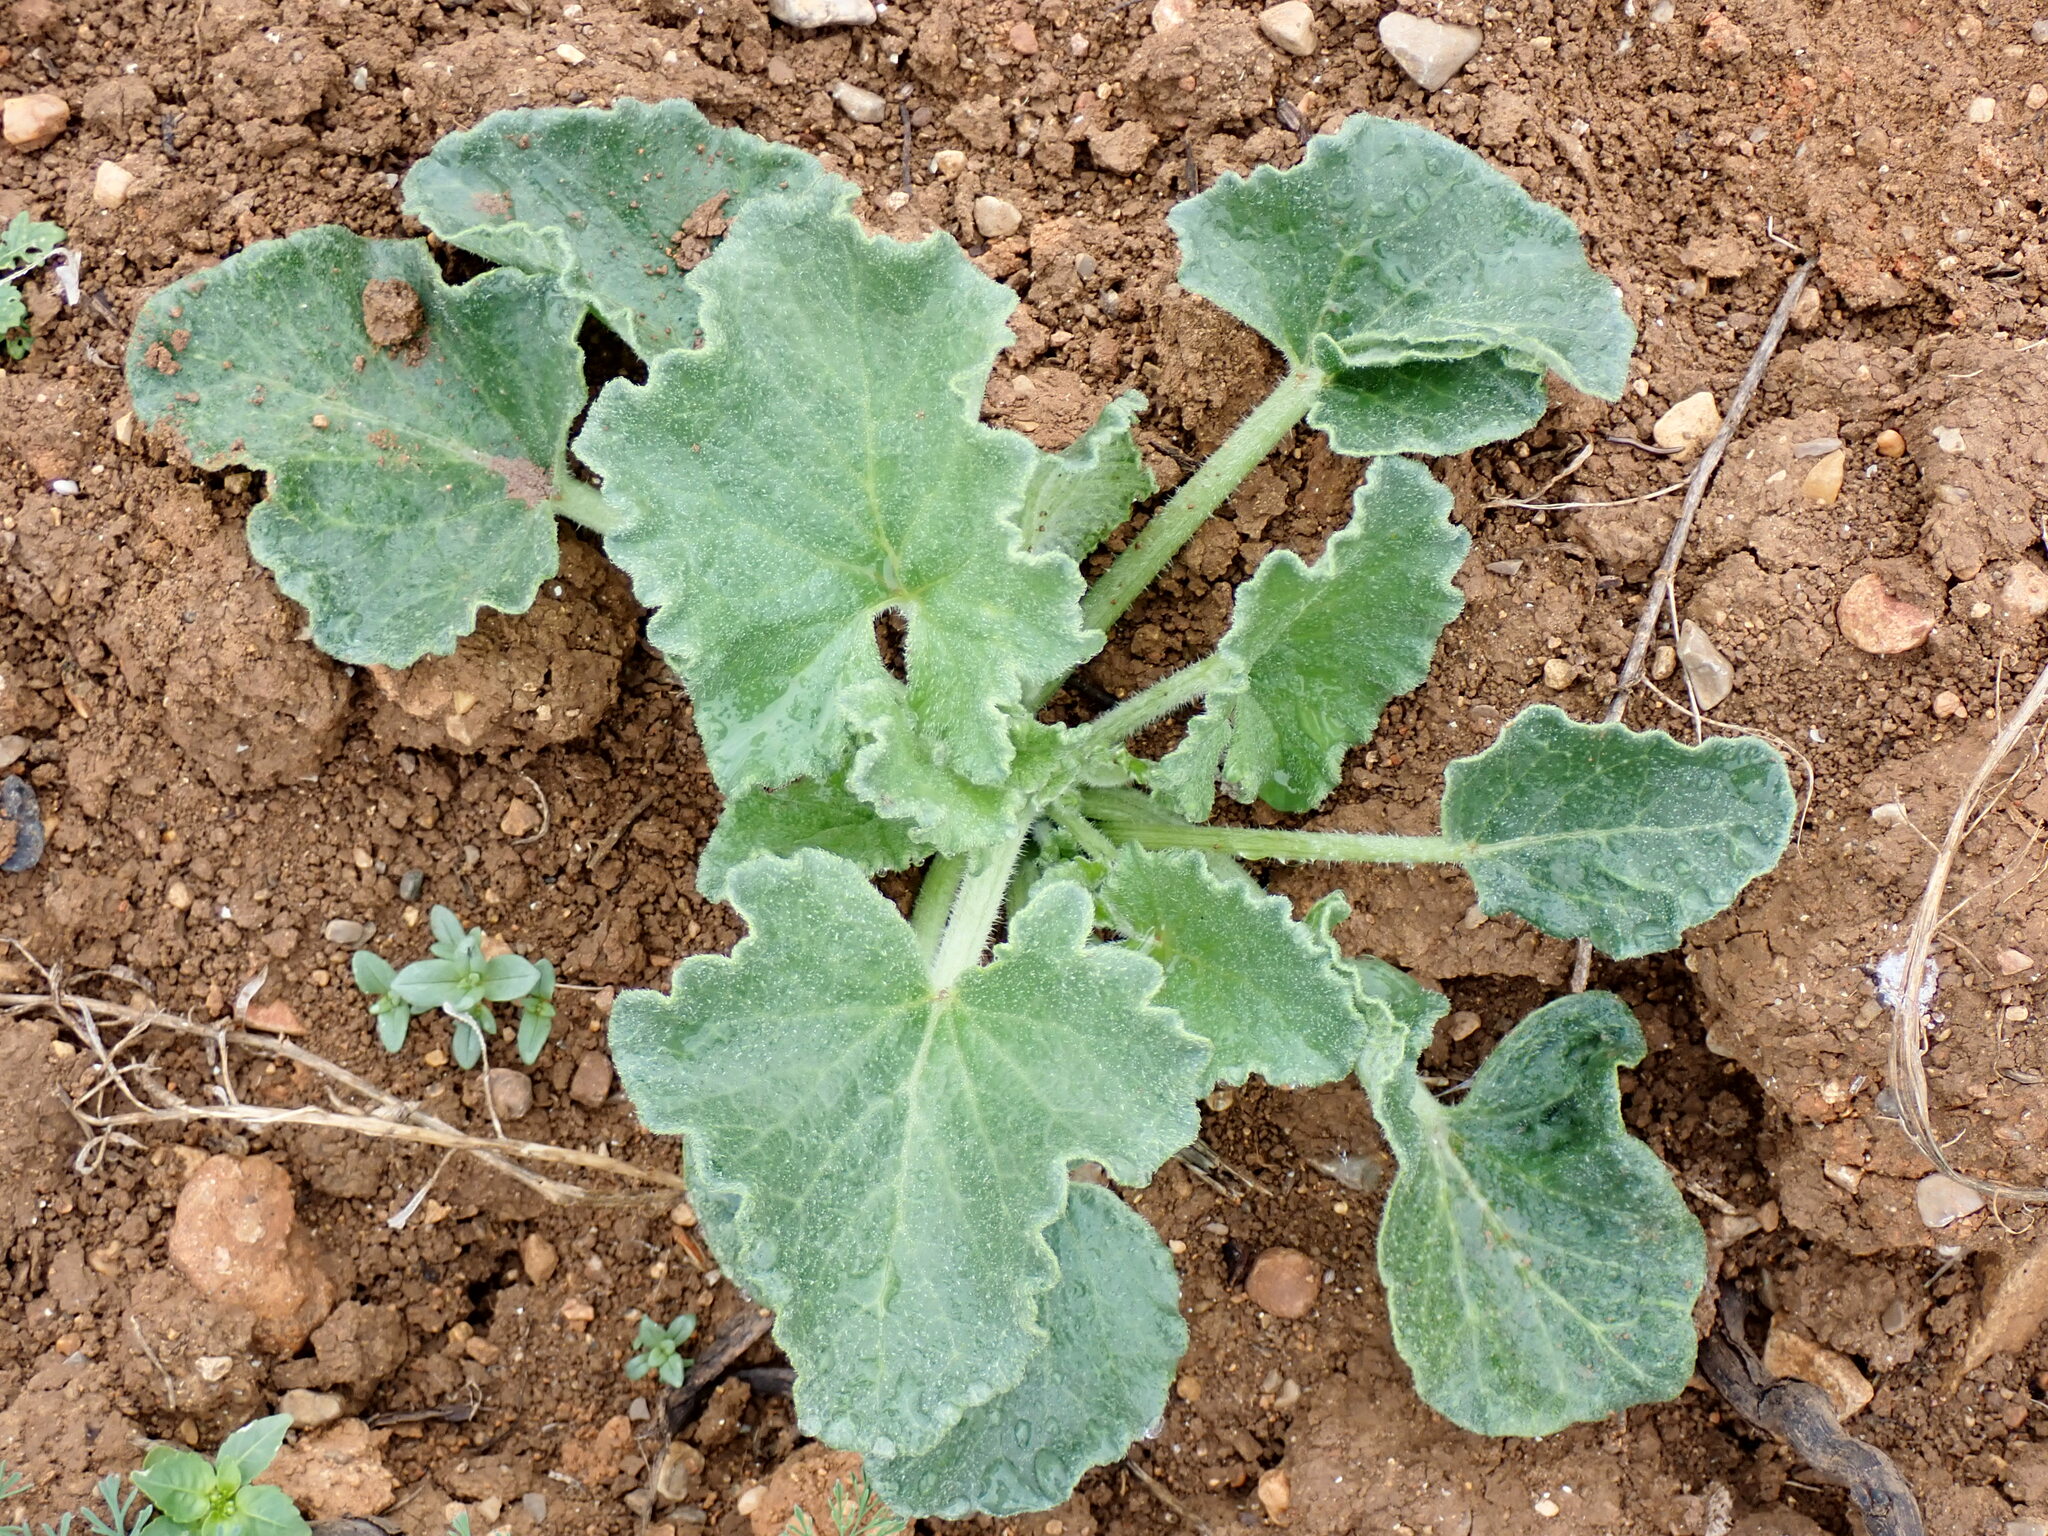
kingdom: Plantae
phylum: Tracheophyta
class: Magnoliopsida
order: Cucurbitales
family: Cucurbitaceae
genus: Ecballium
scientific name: Ecballium elaterium
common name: Squirting cucumber
